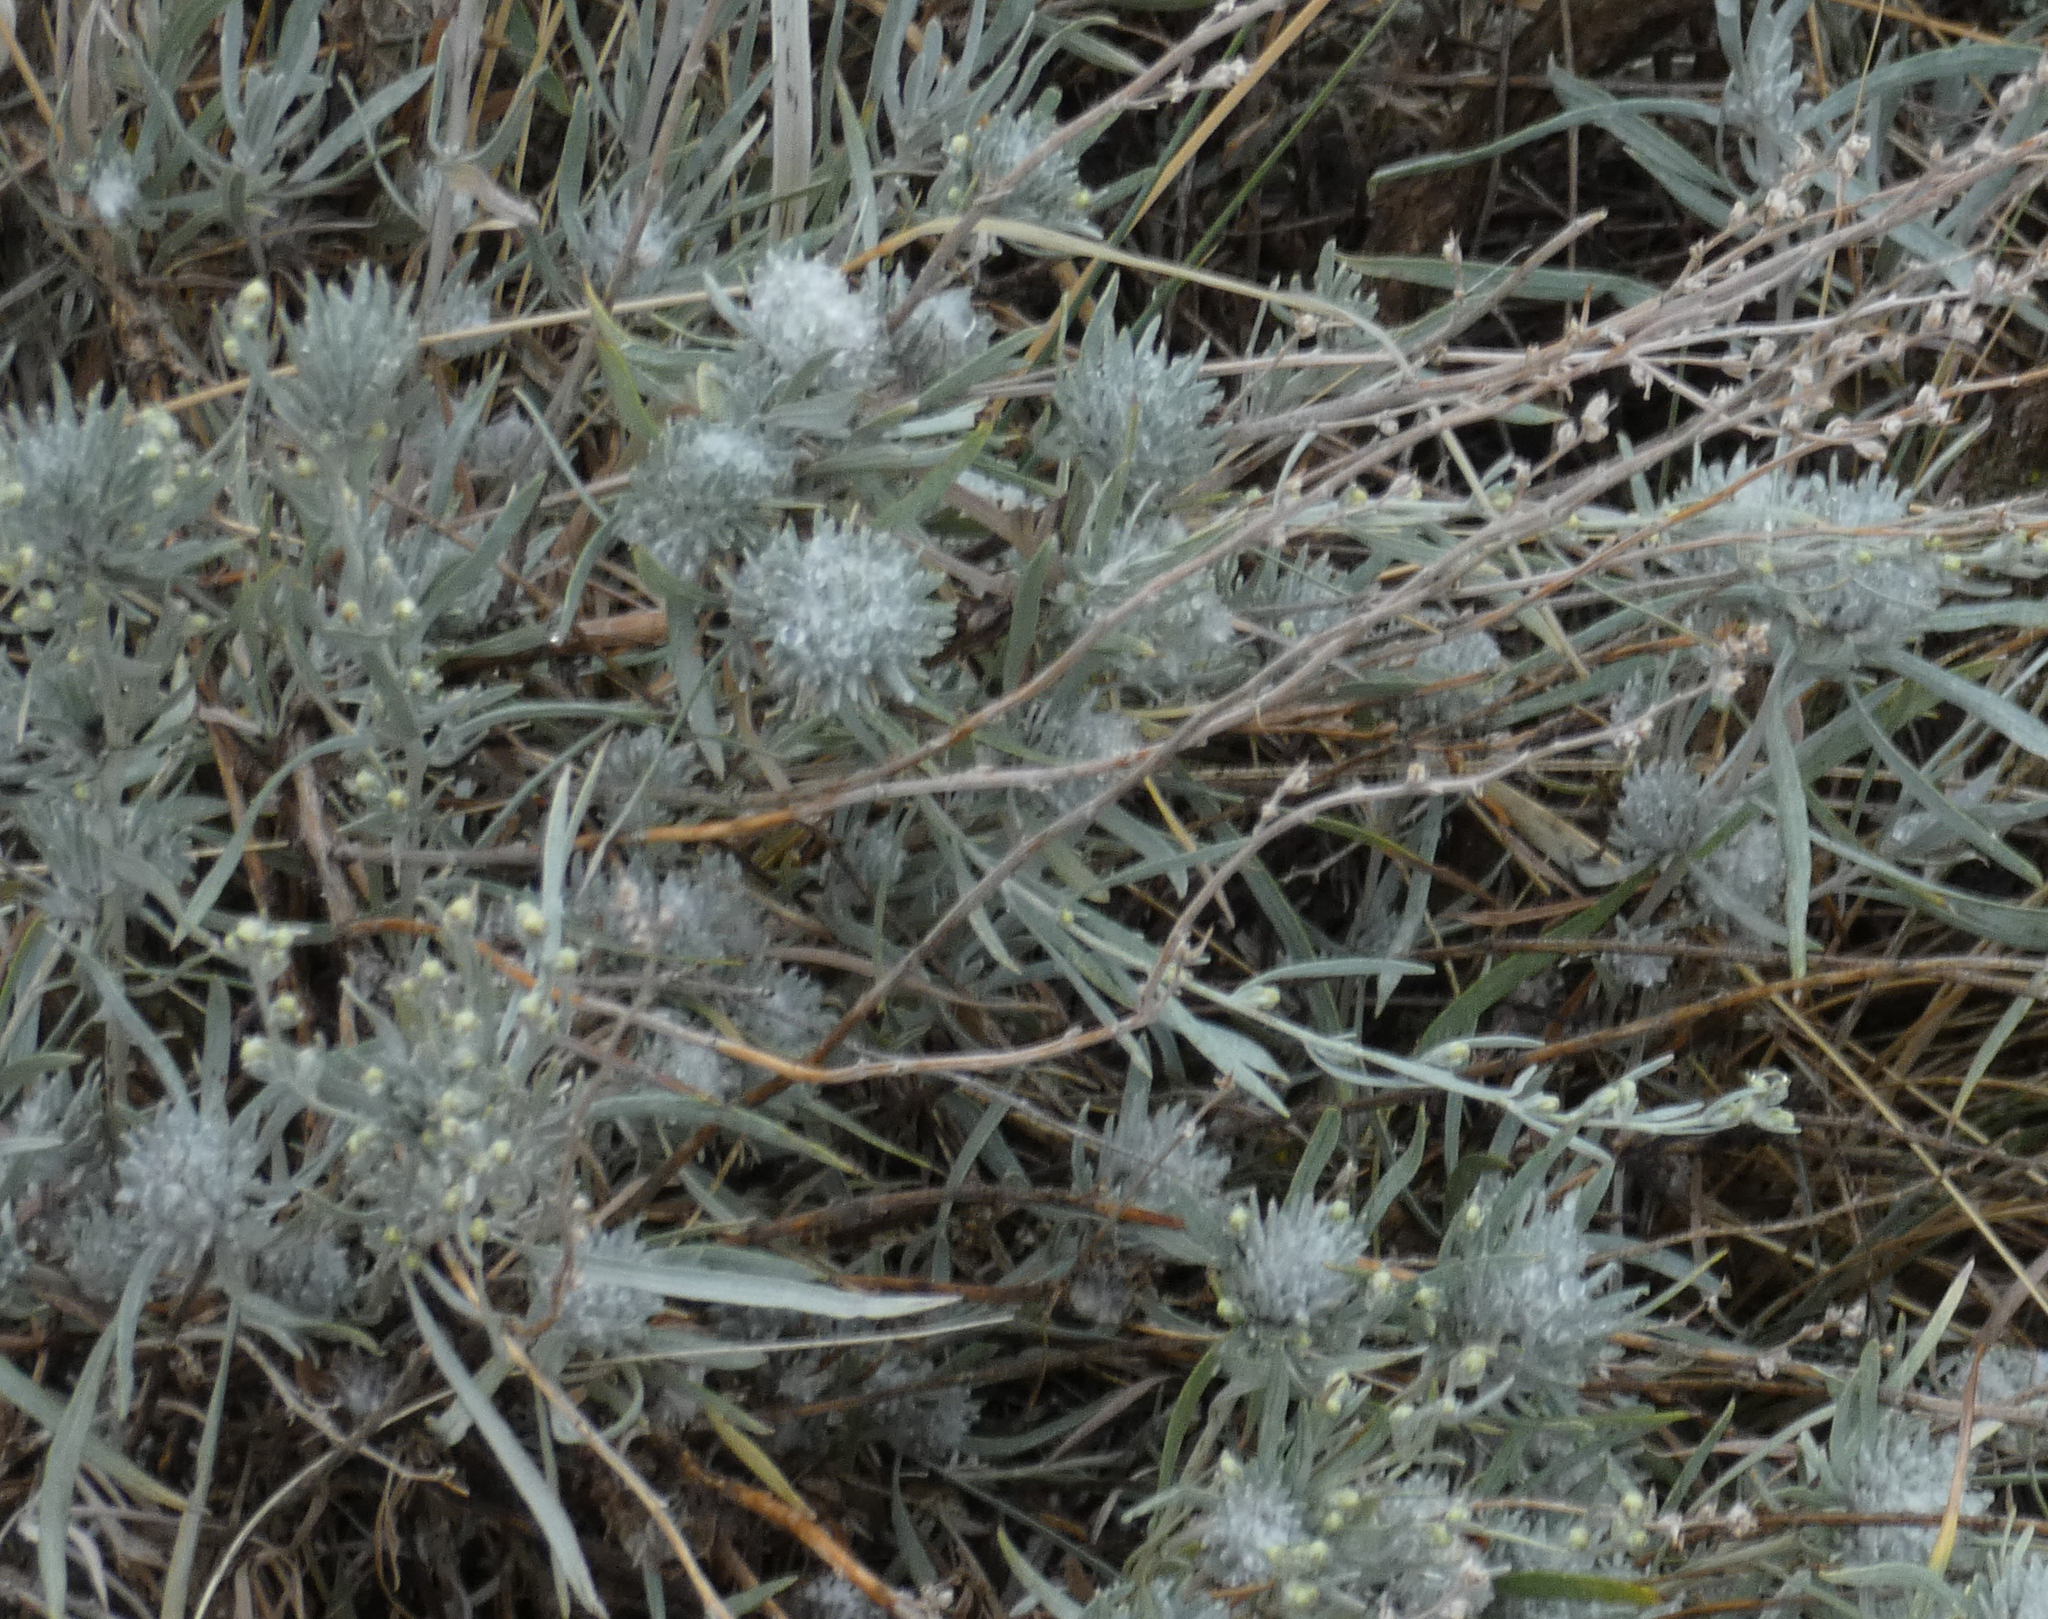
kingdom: Plantae
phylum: Tracheophyta
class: Magnoliopsida
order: Asterales
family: Asteraceae
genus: Artemisia
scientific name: Artemisia frigida
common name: Prairie sagewort
